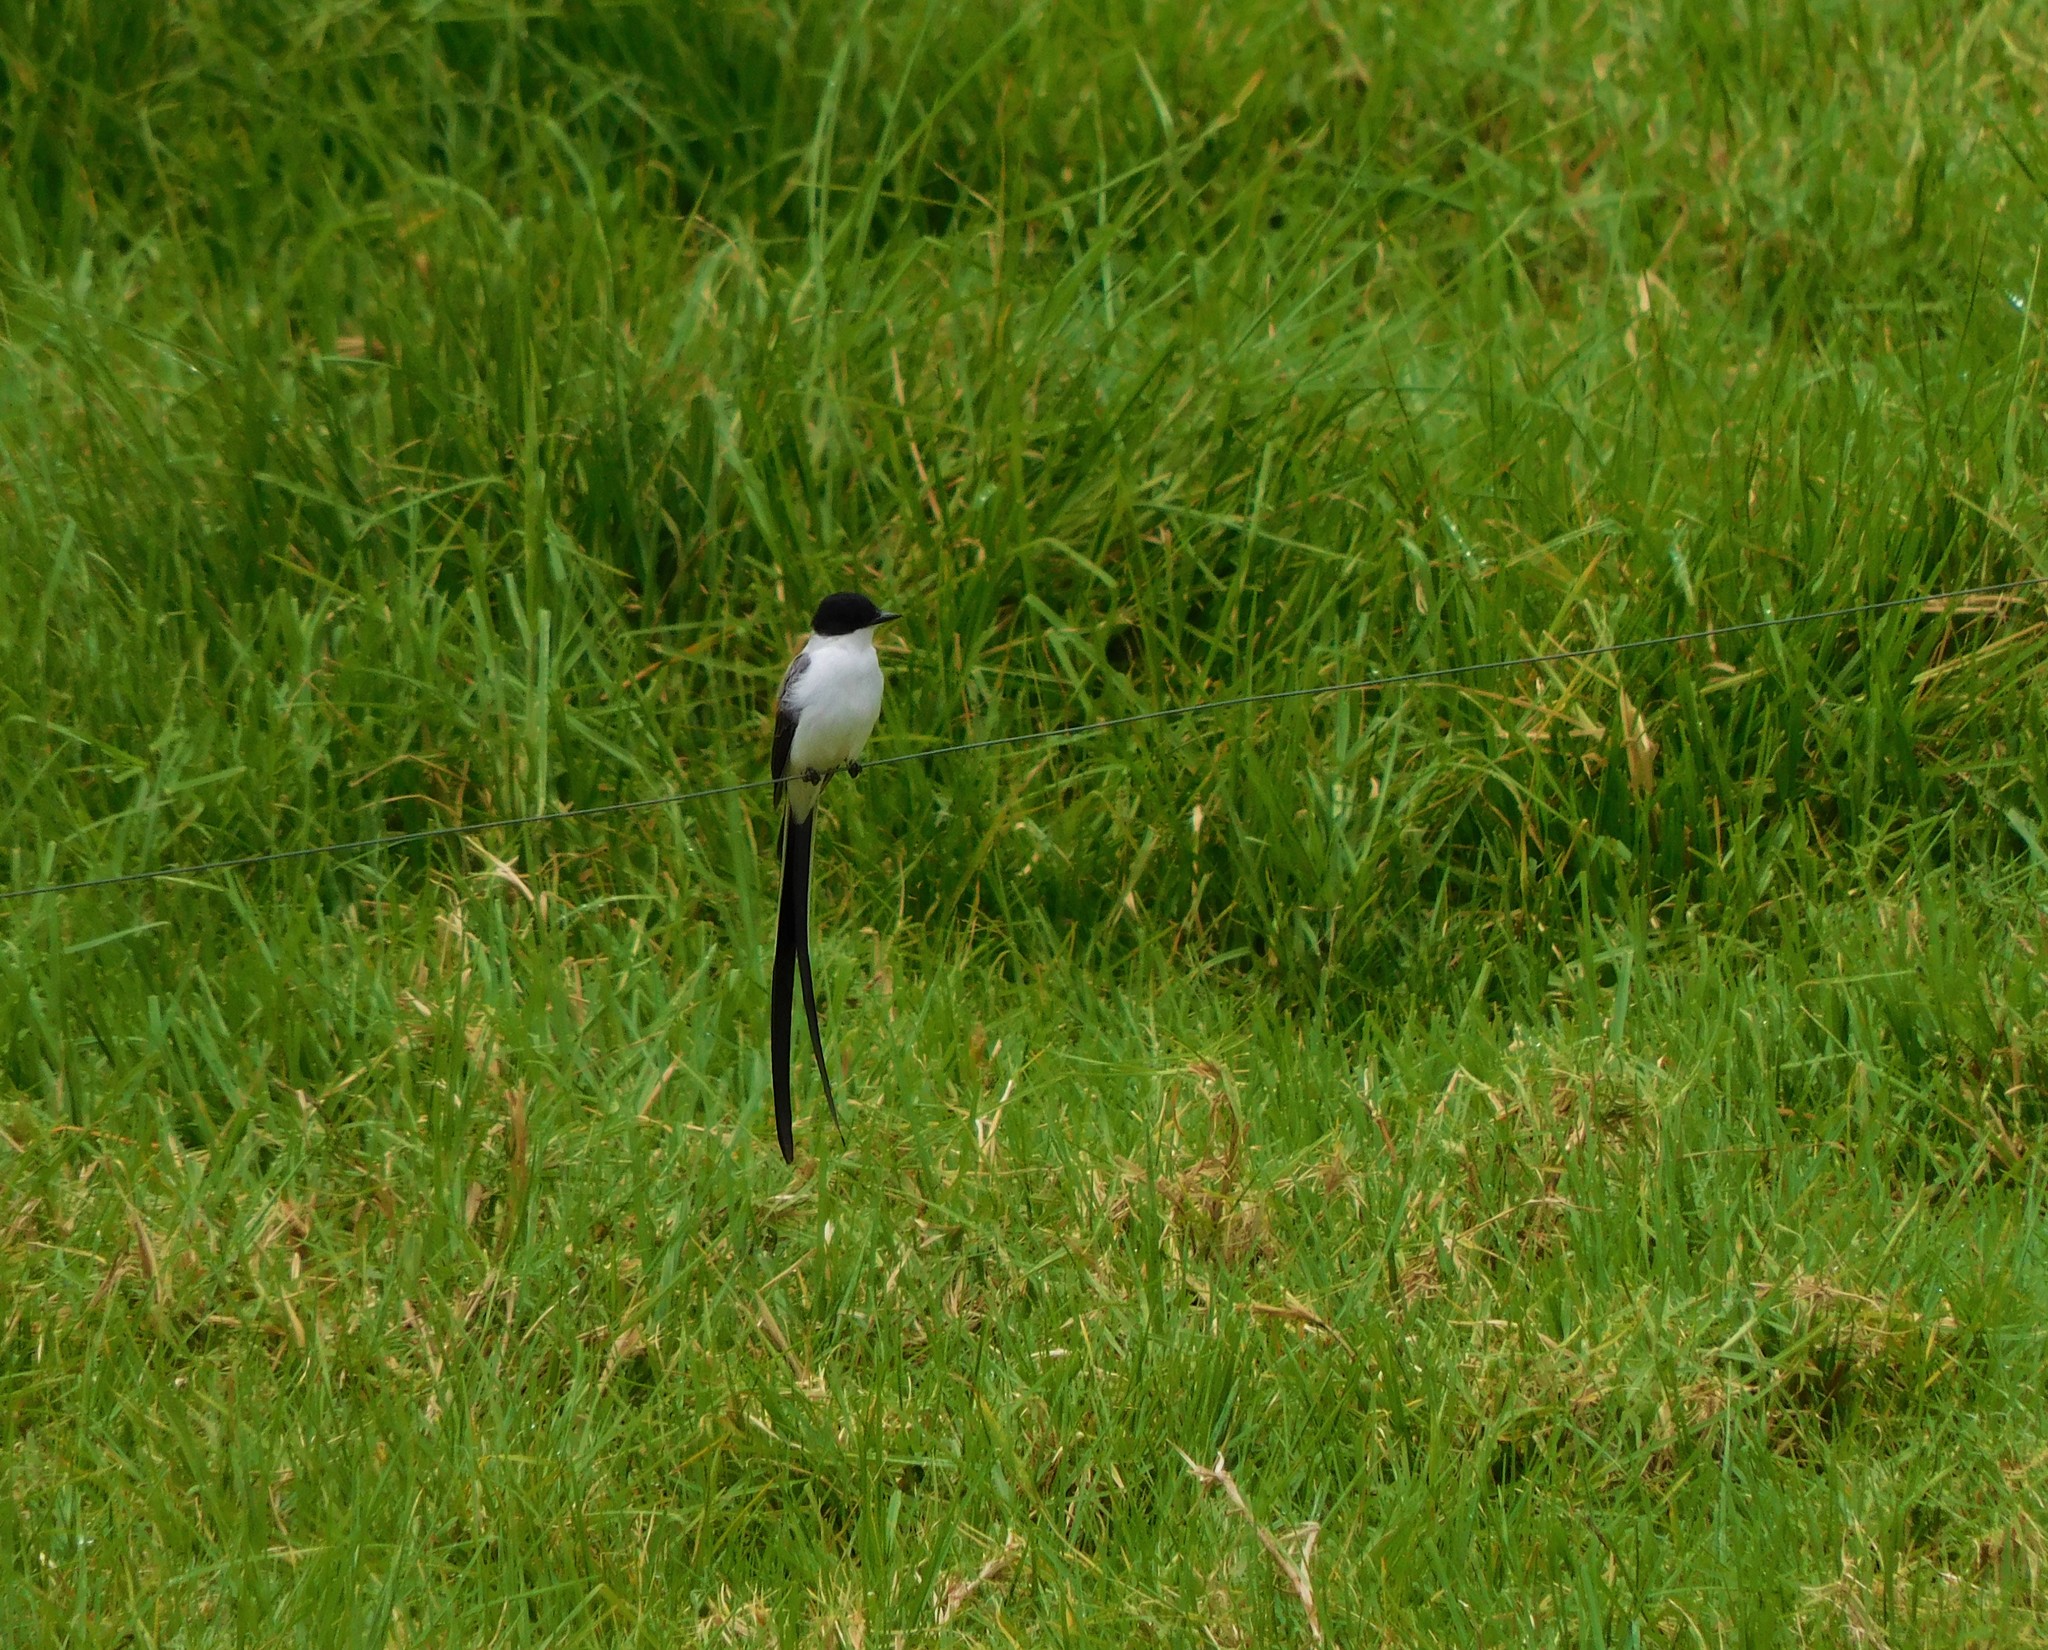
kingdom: Animalia
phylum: Chordata
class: Aves
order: Passeriformes
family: Tyrannidae
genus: Tyrannus
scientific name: Tyrannus savana
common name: Fork-tailed flycatcher
